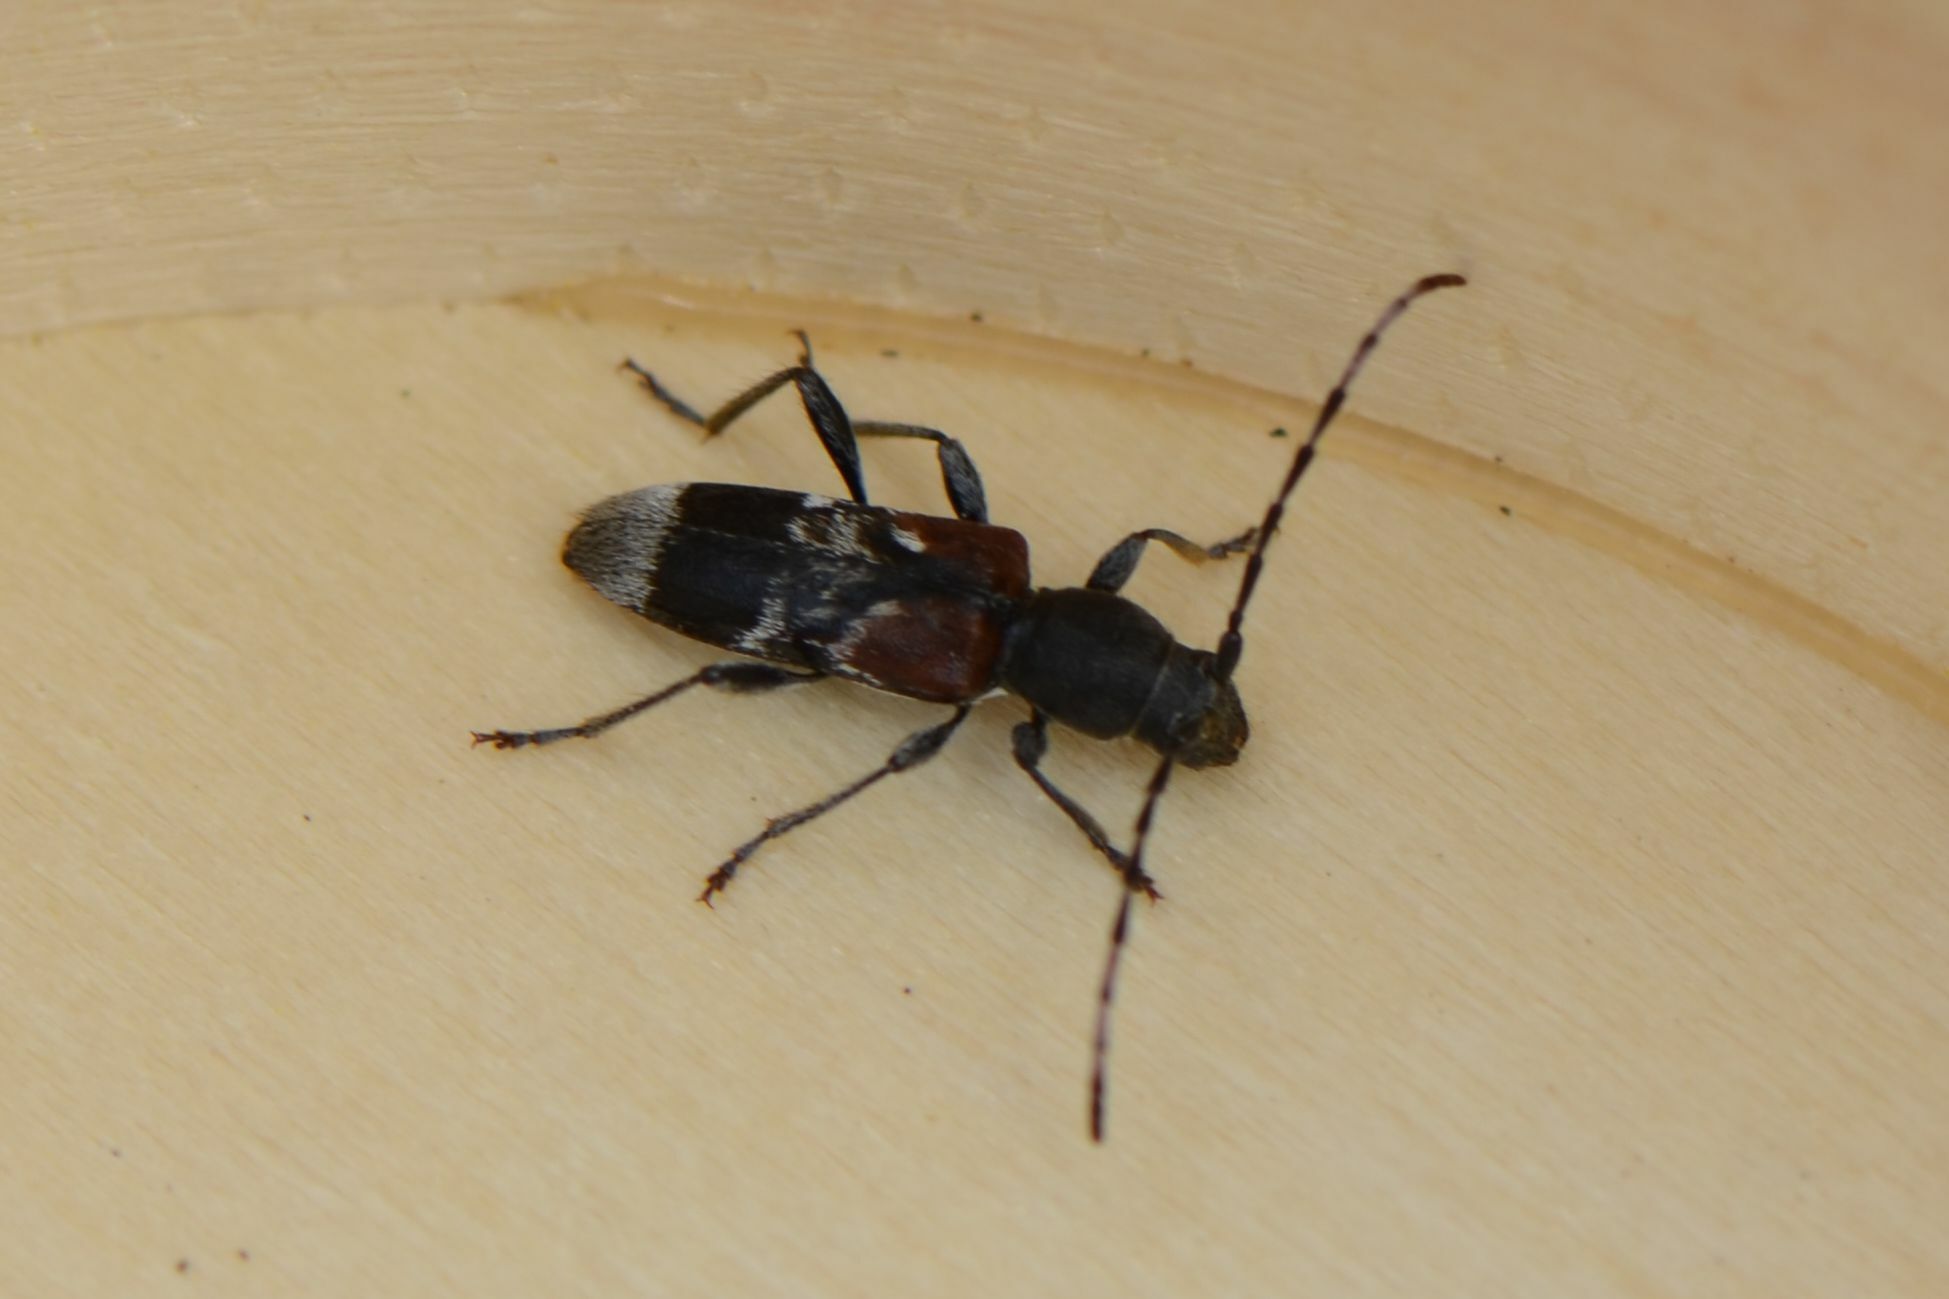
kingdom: Animalia
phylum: Arthropoda
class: Insecta
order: Coleoptera
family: Cerambycidae
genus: Anaglyptus
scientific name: Anaglyptus mysticus
